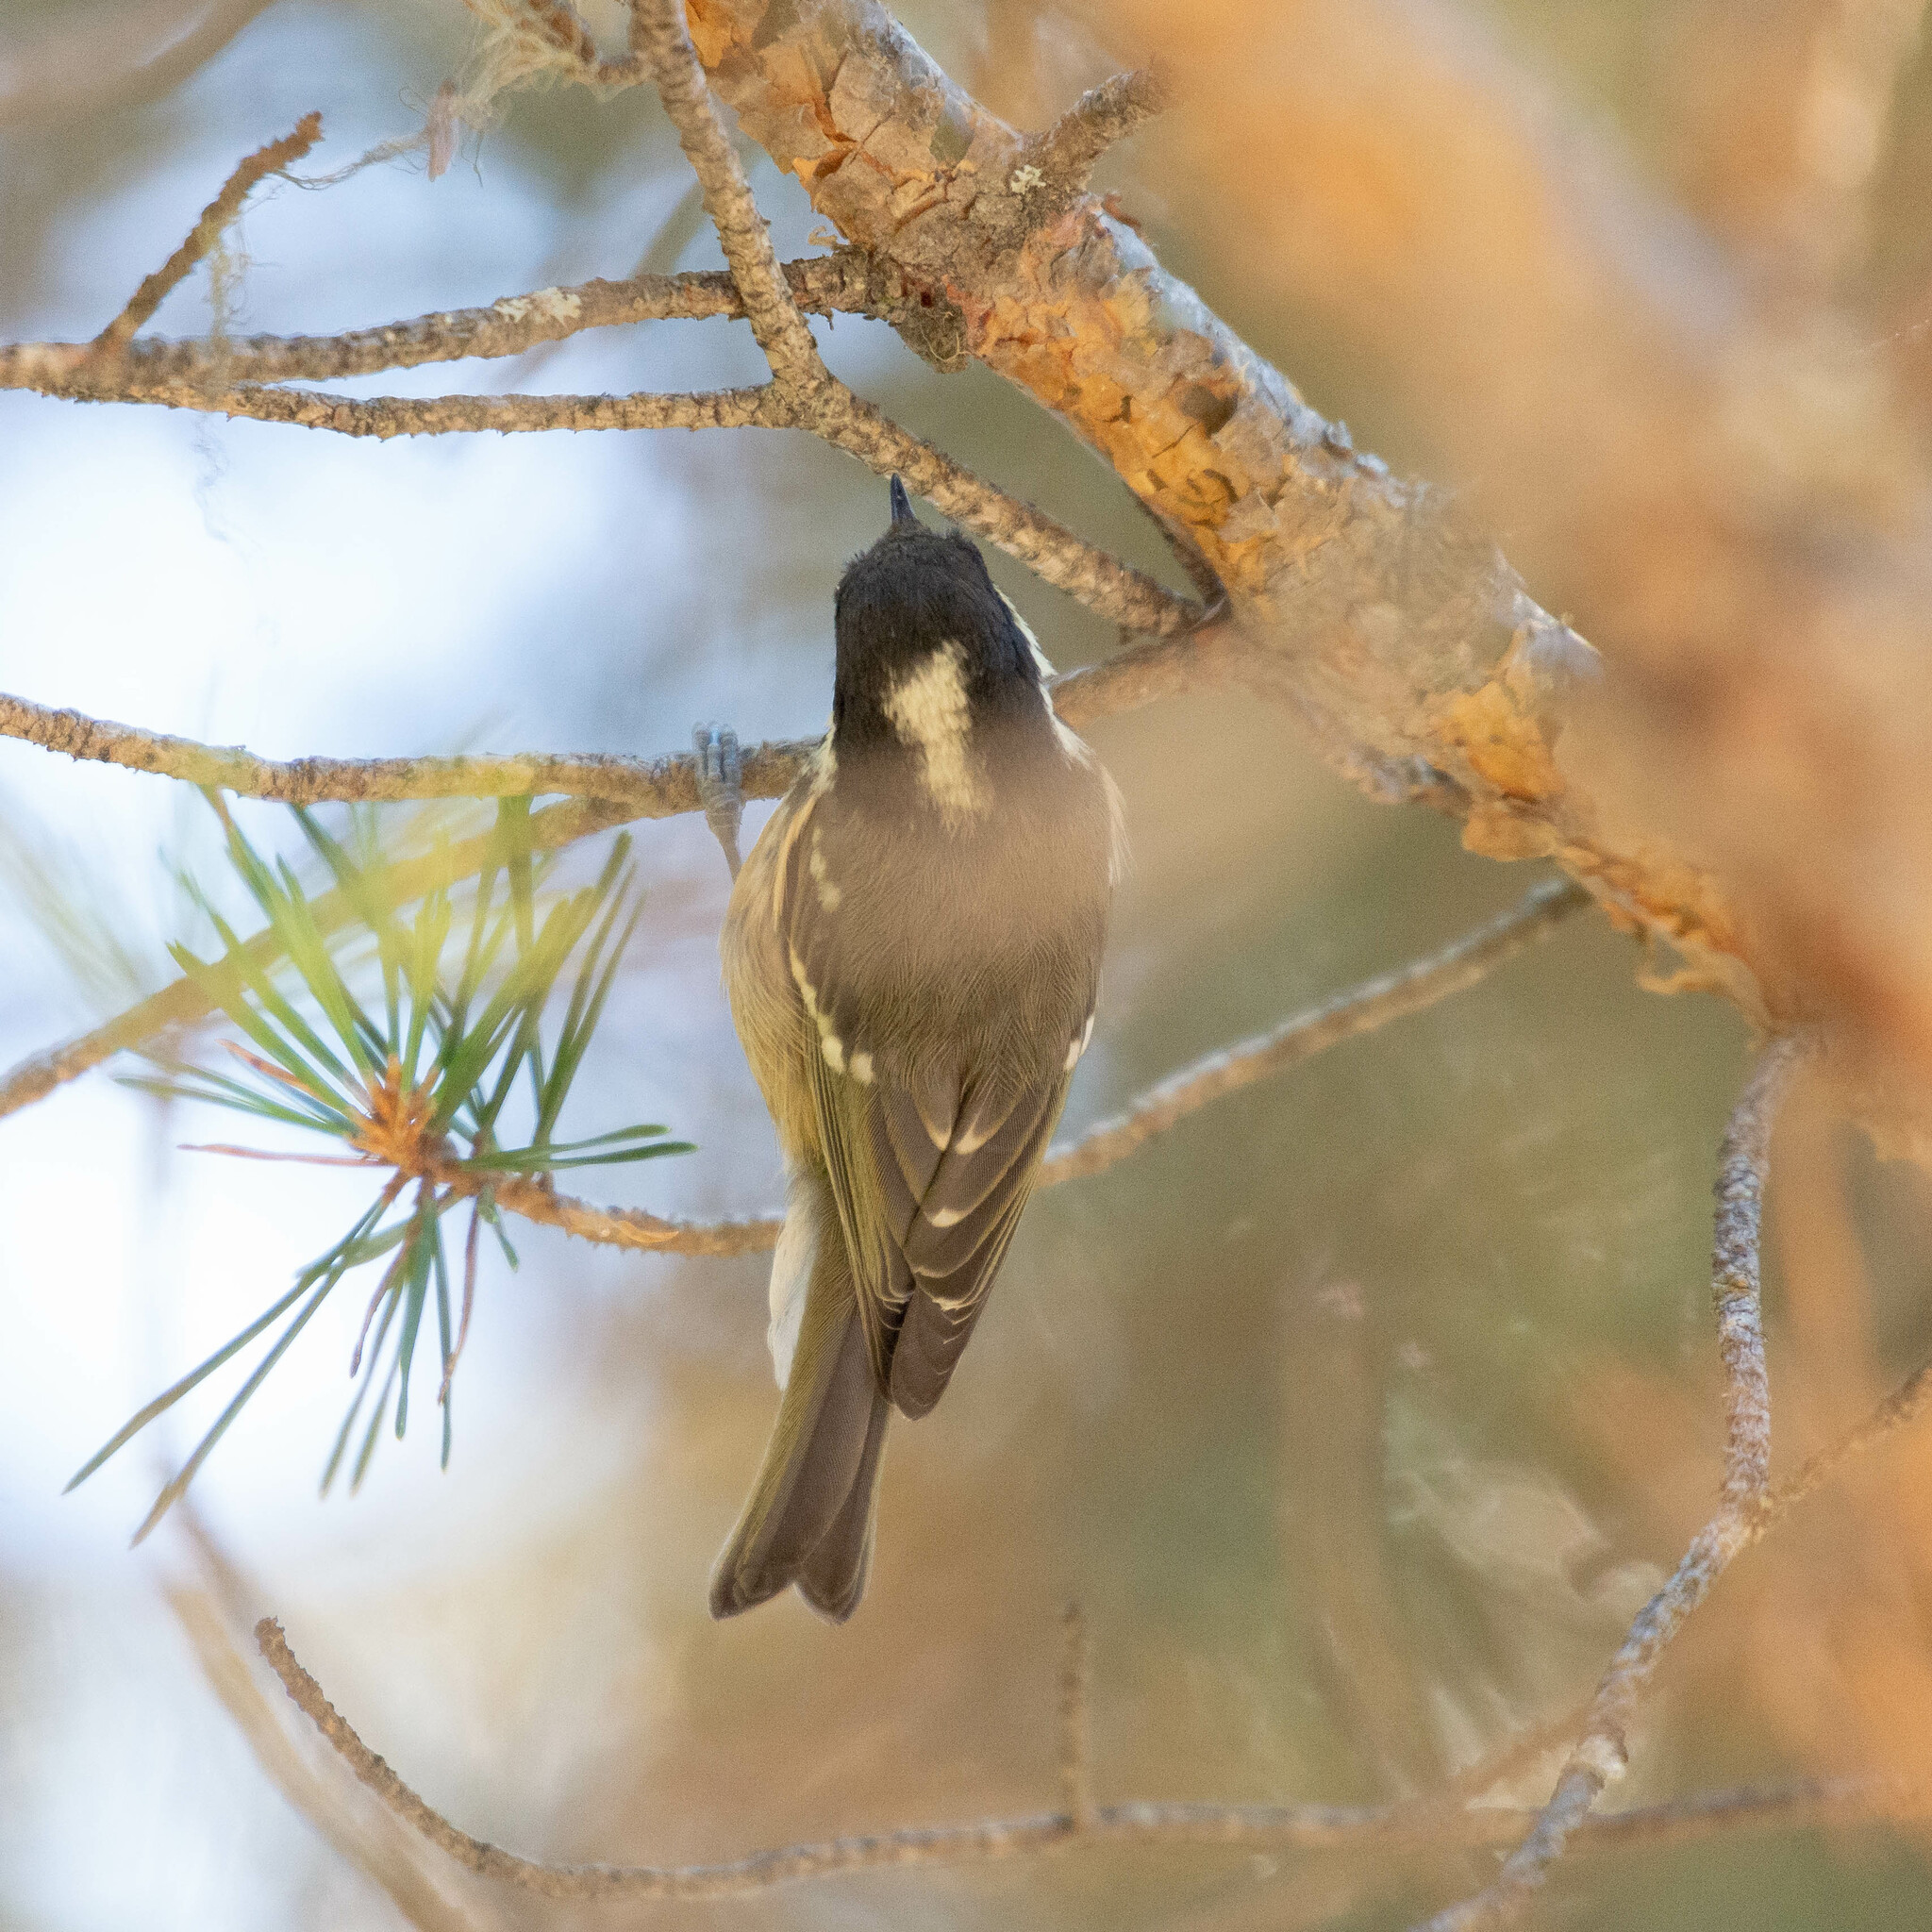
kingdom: Animalia
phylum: Chordata
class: Aves
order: Passeriformes
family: Paridae
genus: Periparus
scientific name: Periparus ater
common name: Coal tit
